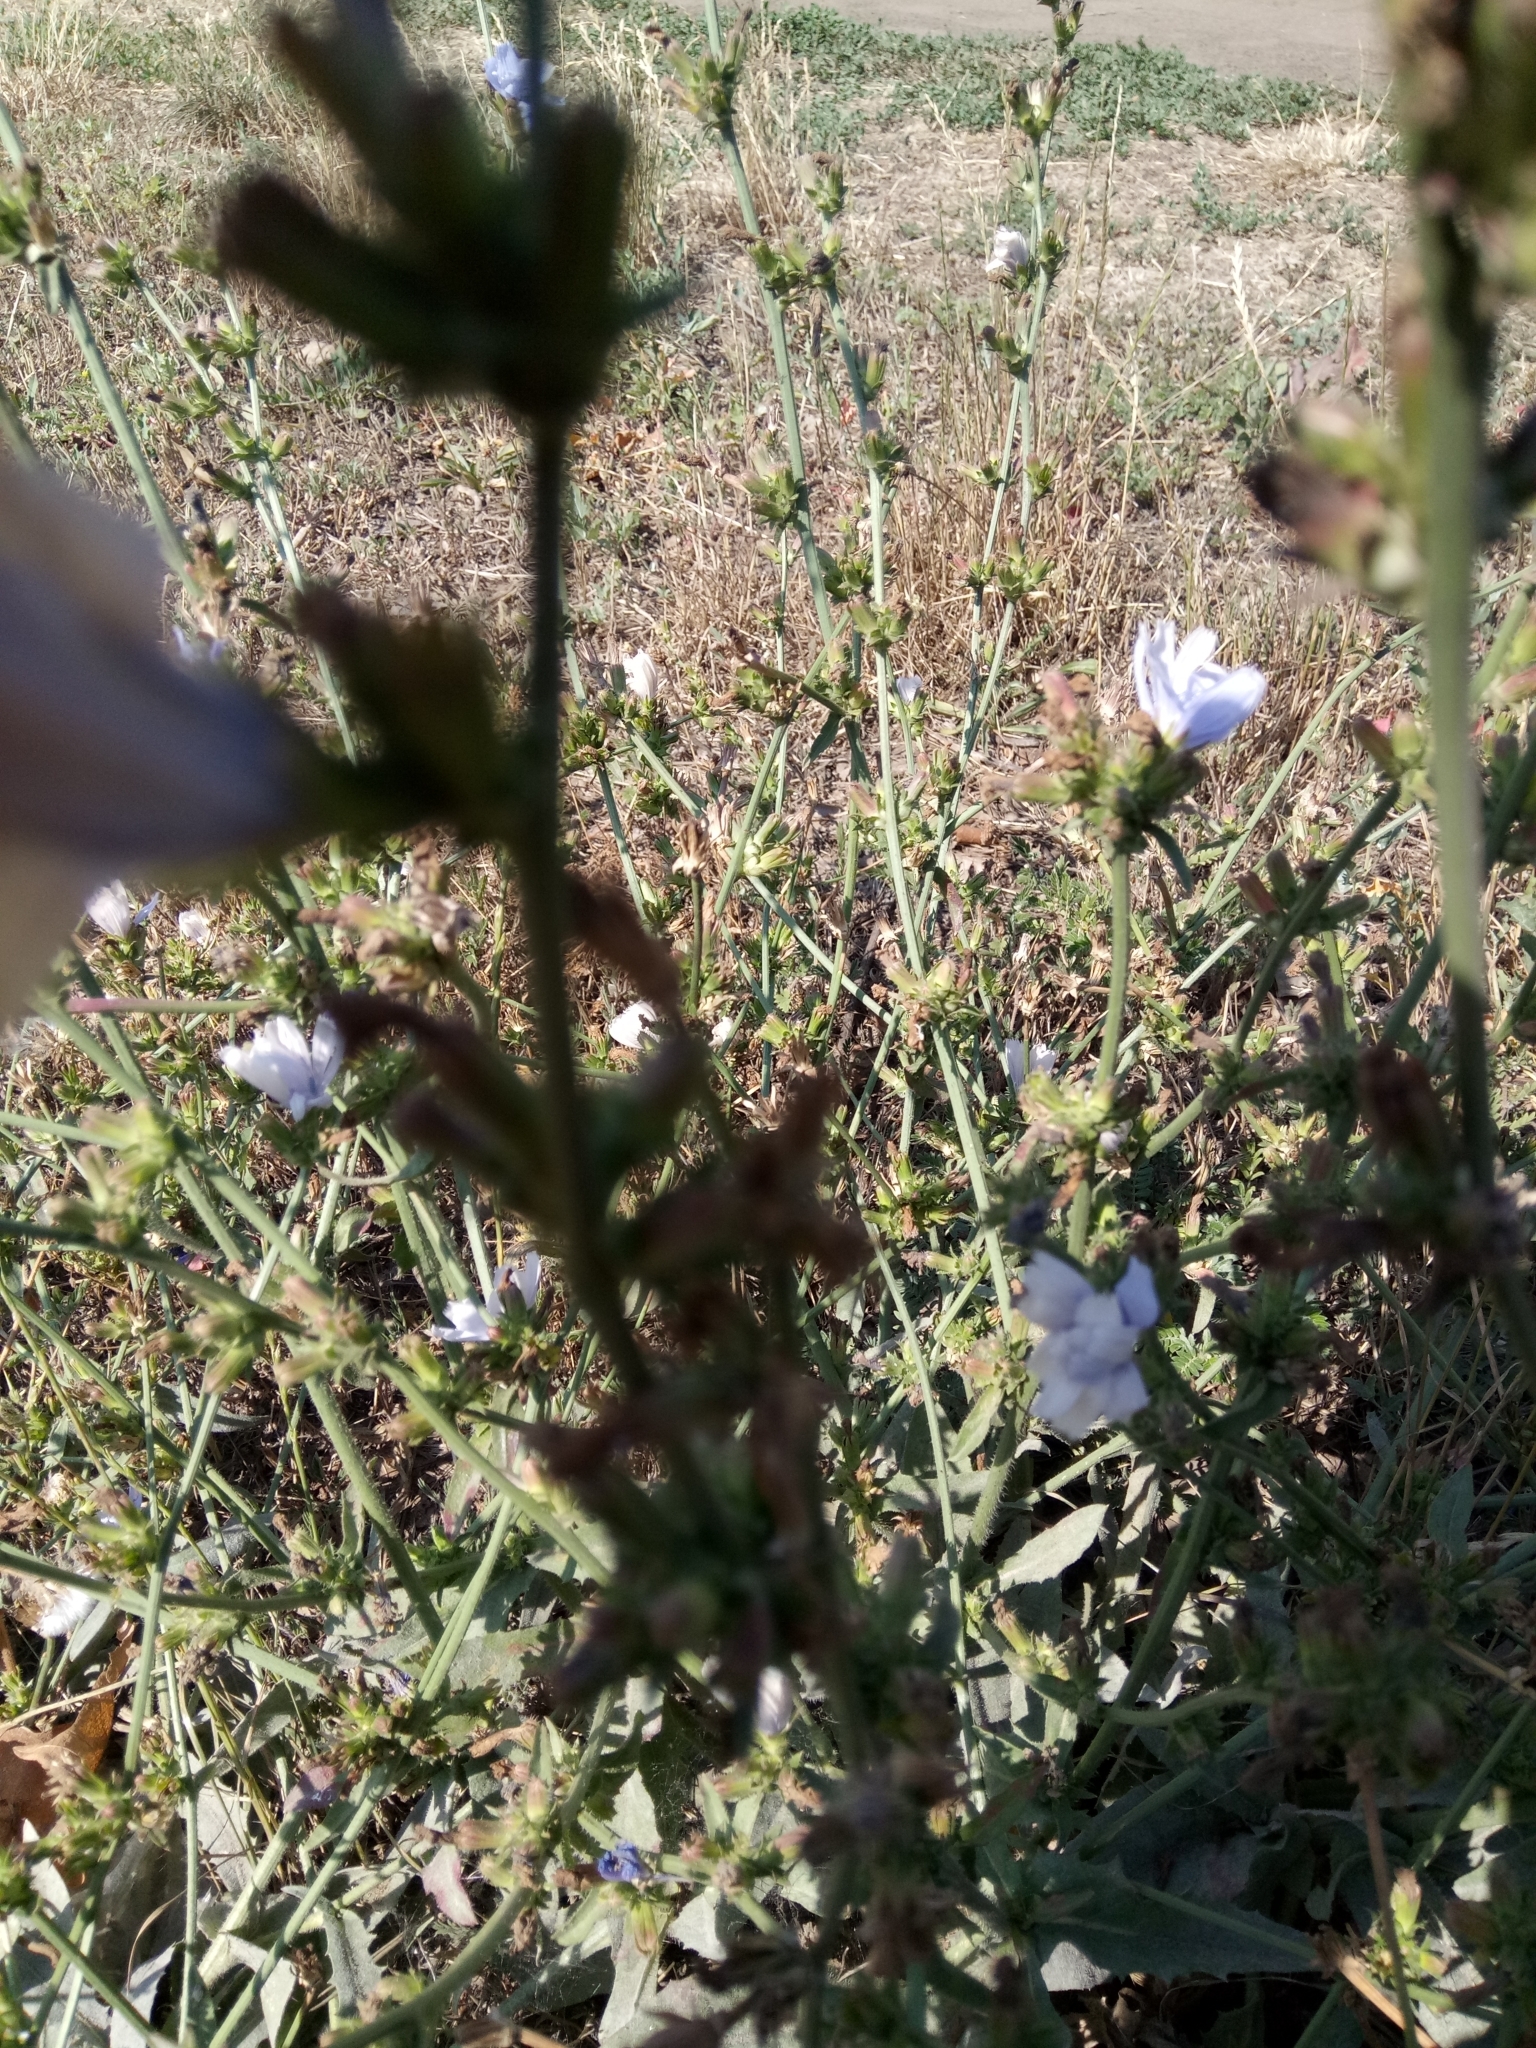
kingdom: Plantae
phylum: Tracheophyta
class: Magnoliopsida
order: Asterales
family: Asteraceae
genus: Cichorium
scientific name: Cichorium intybus
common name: Chicory
